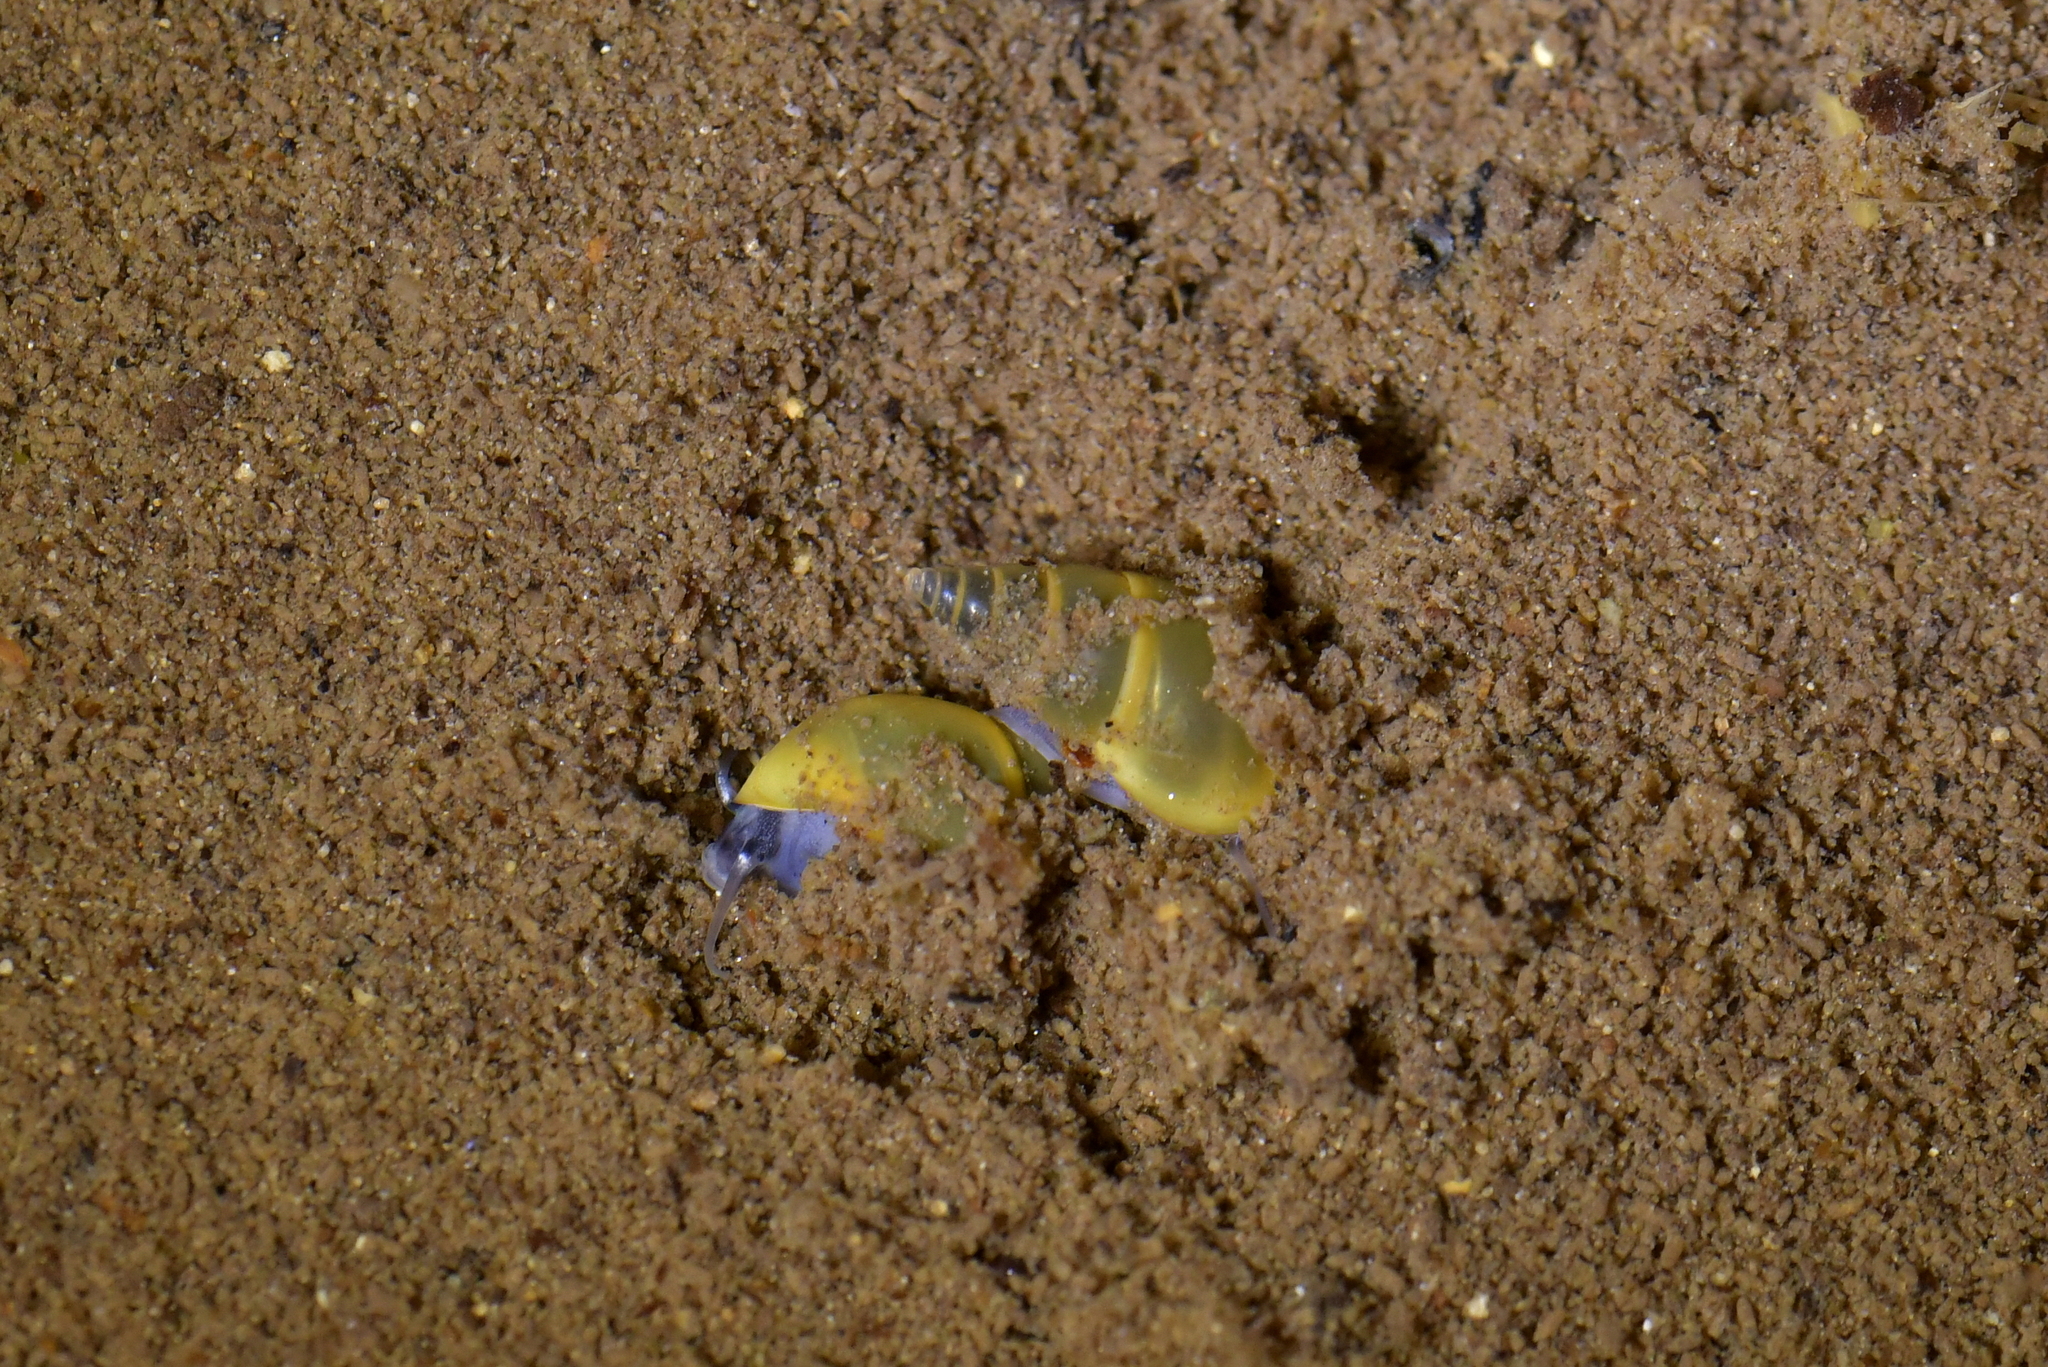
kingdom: Animalia
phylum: Mollusca
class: Gastropoda
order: Littorinimorpha
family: Tateidae
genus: Potamopyrgus
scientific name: Potamopyrgus antipodarum
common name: Jenkins' spire snail
